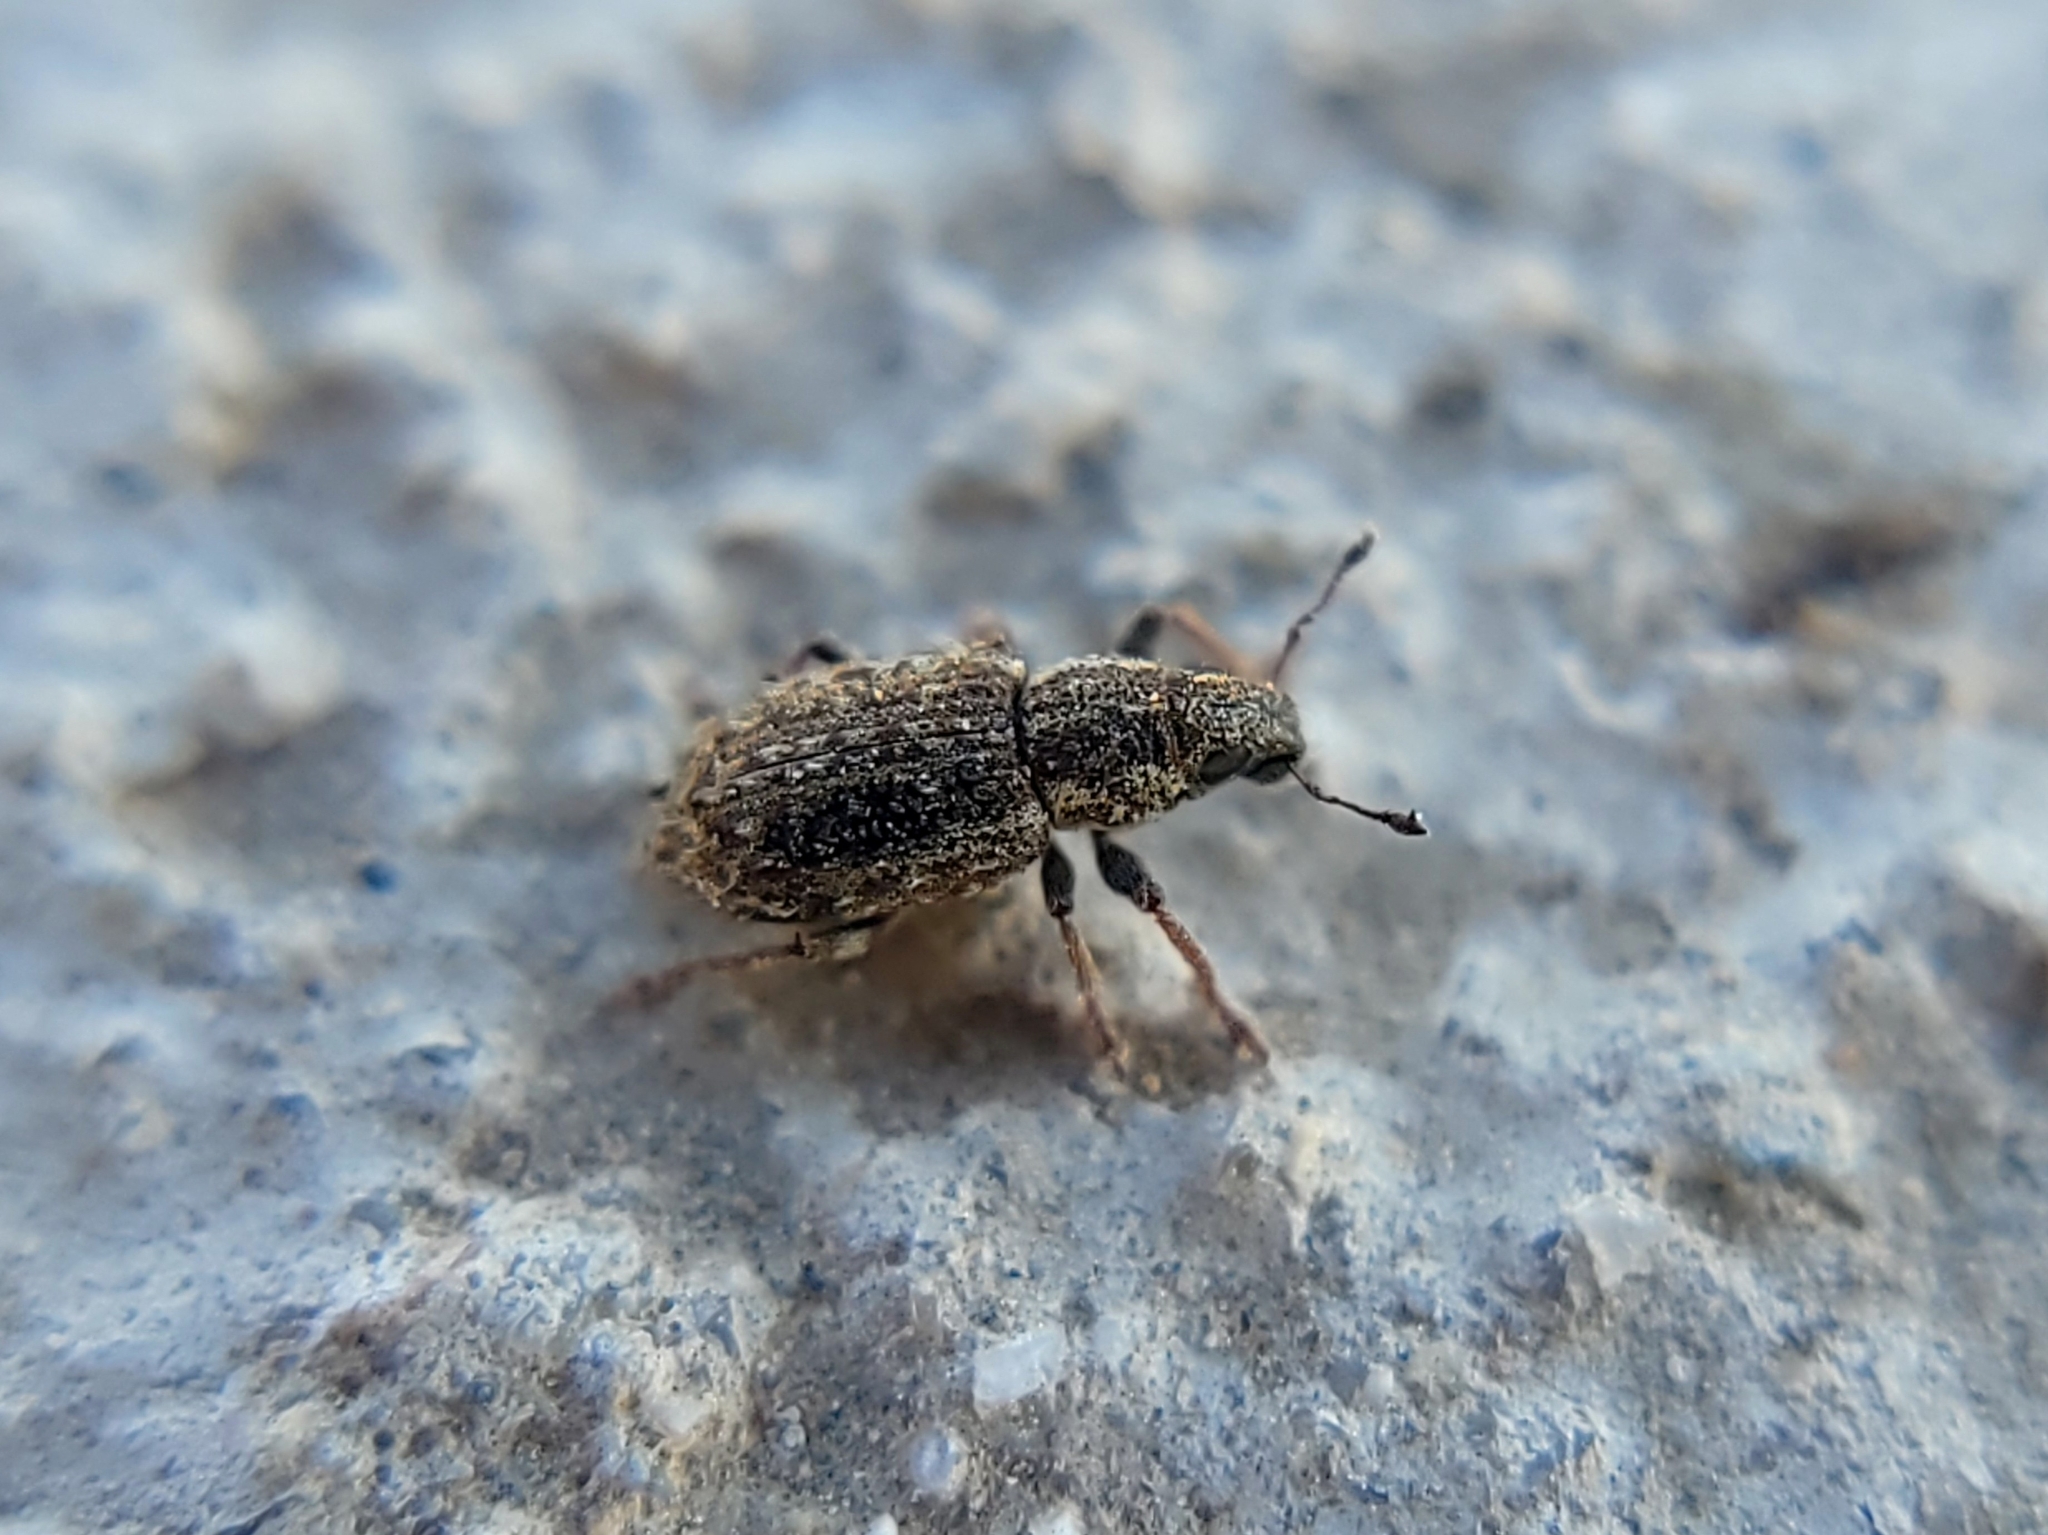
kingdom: Animalia
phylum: Arthropoda
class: Insecta
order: Coleoptera
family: Curculionidae
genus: Sitona
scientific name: Sitona hispidulus
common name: Clover weevil
